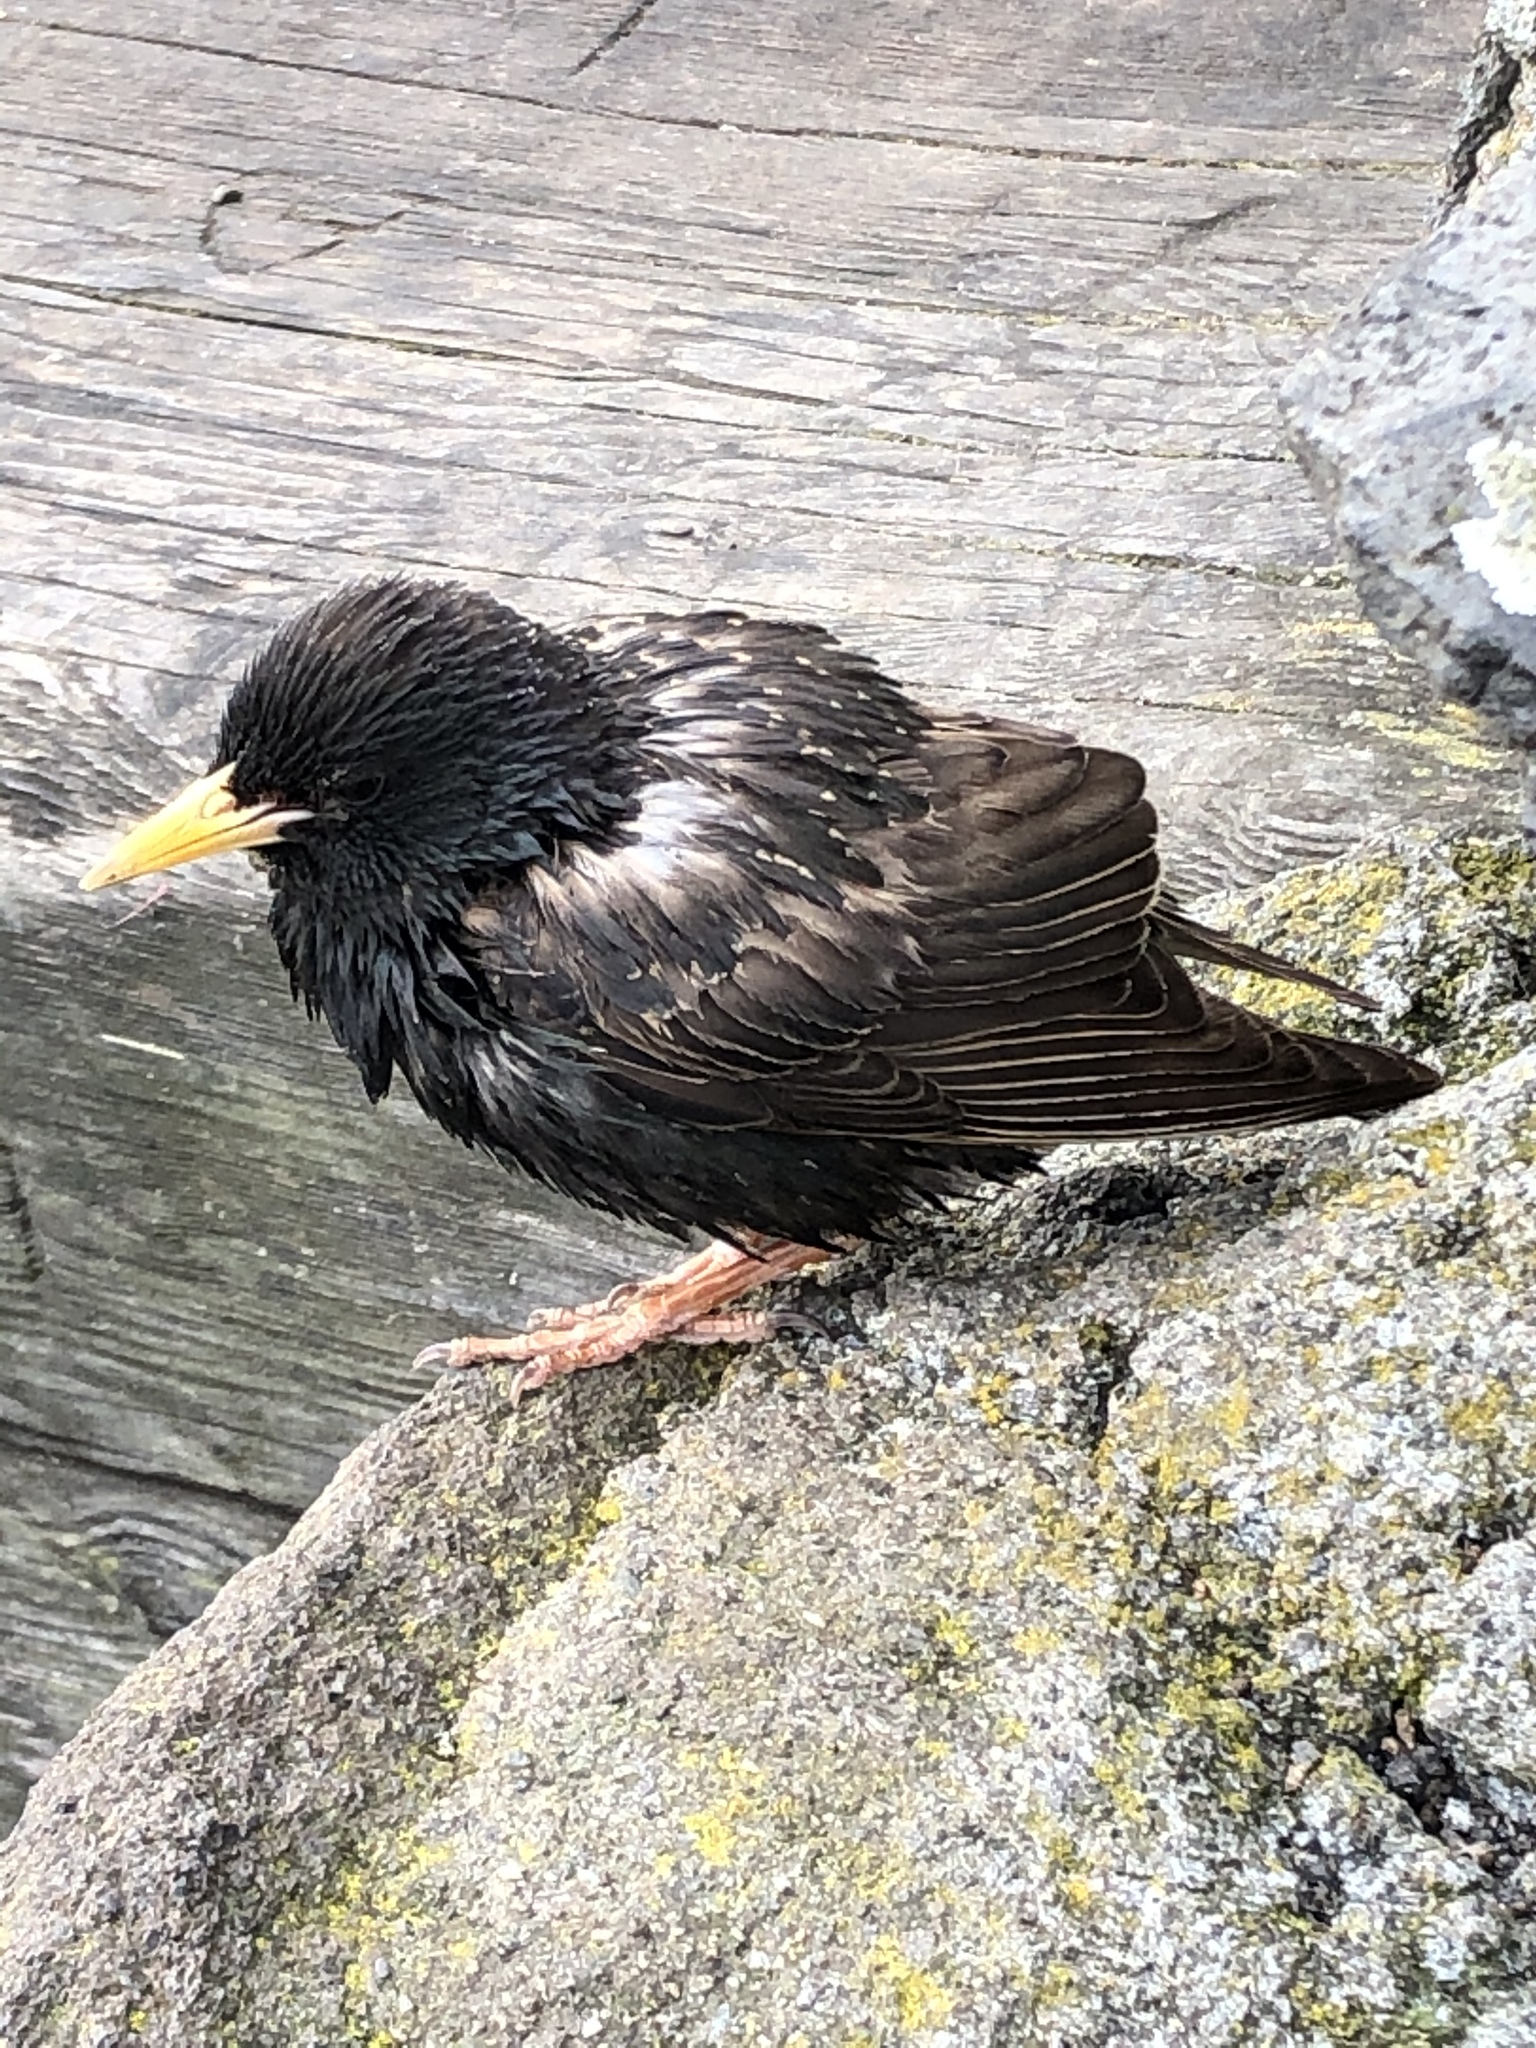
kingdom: Animalia
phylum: Chordata
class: Aves
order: Passeriformes
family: Sturnidae
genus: Sturnus
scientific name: Sturnus vulgaris
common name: Common starling
